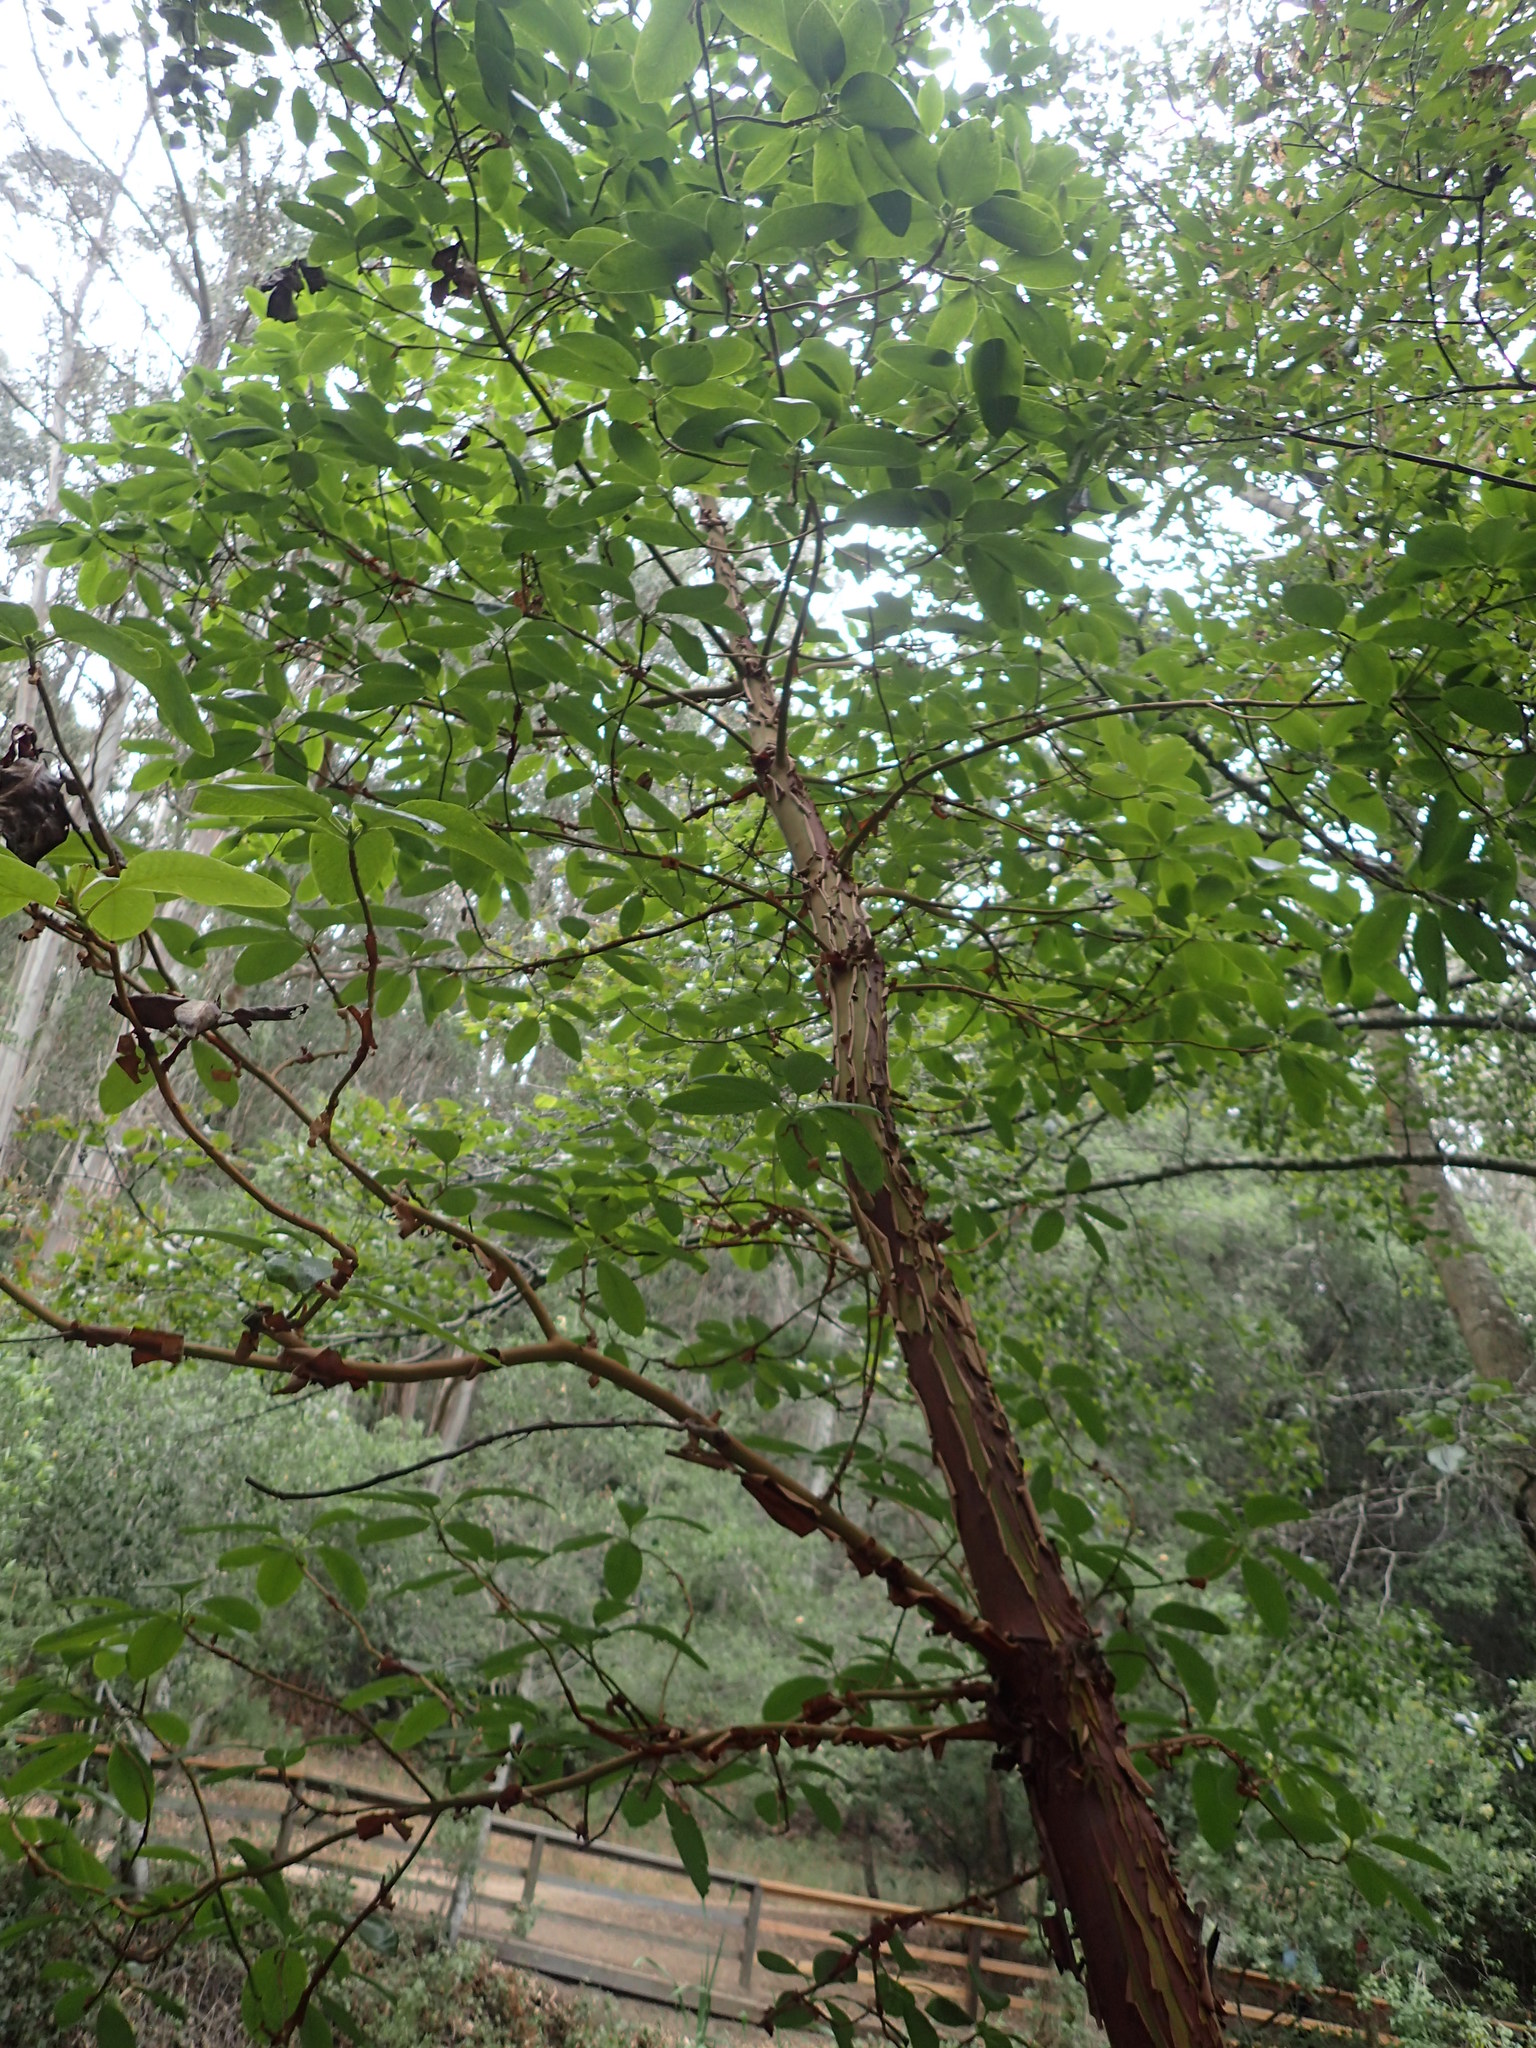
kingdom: Plantae
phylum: Tracheophyta
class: Magnoliopsida
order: Ericales
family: Ericaceae
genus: Arbutus
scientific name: Arbutus menziesii
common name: Pacific madrone
